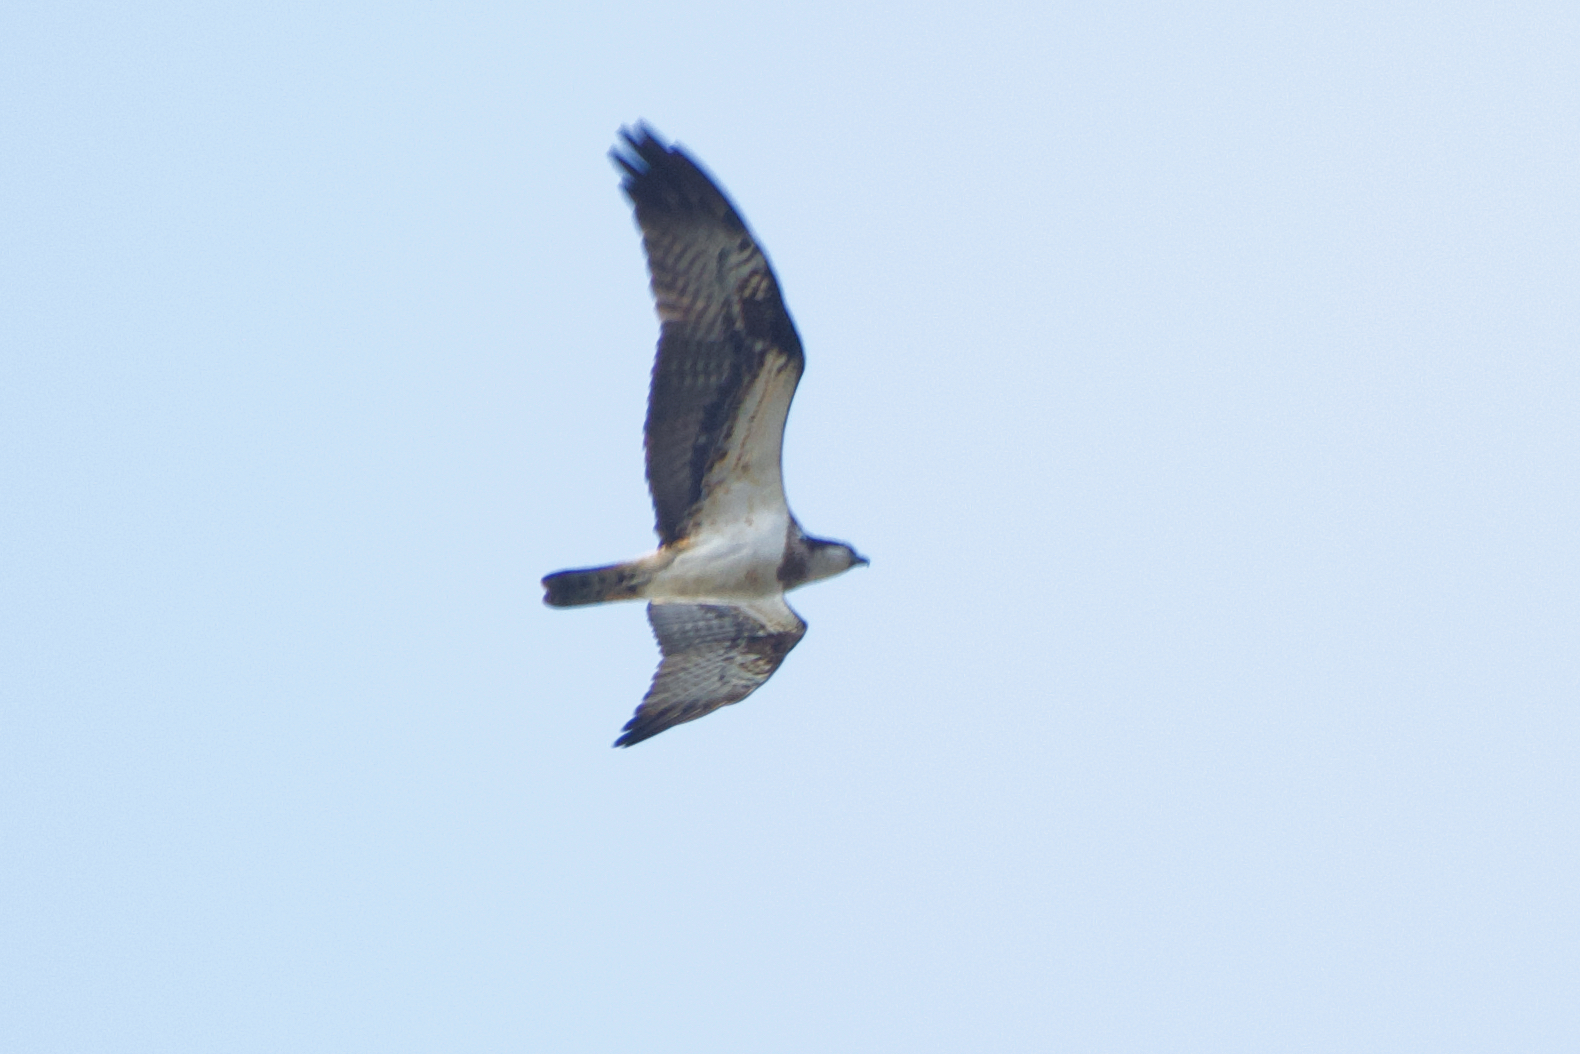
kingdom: Animalia
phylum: Chordata
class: Aves
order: Accipitriformes
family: Pandionidae
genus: Pandion
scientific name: Pandion haliaetus
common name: Osprey
